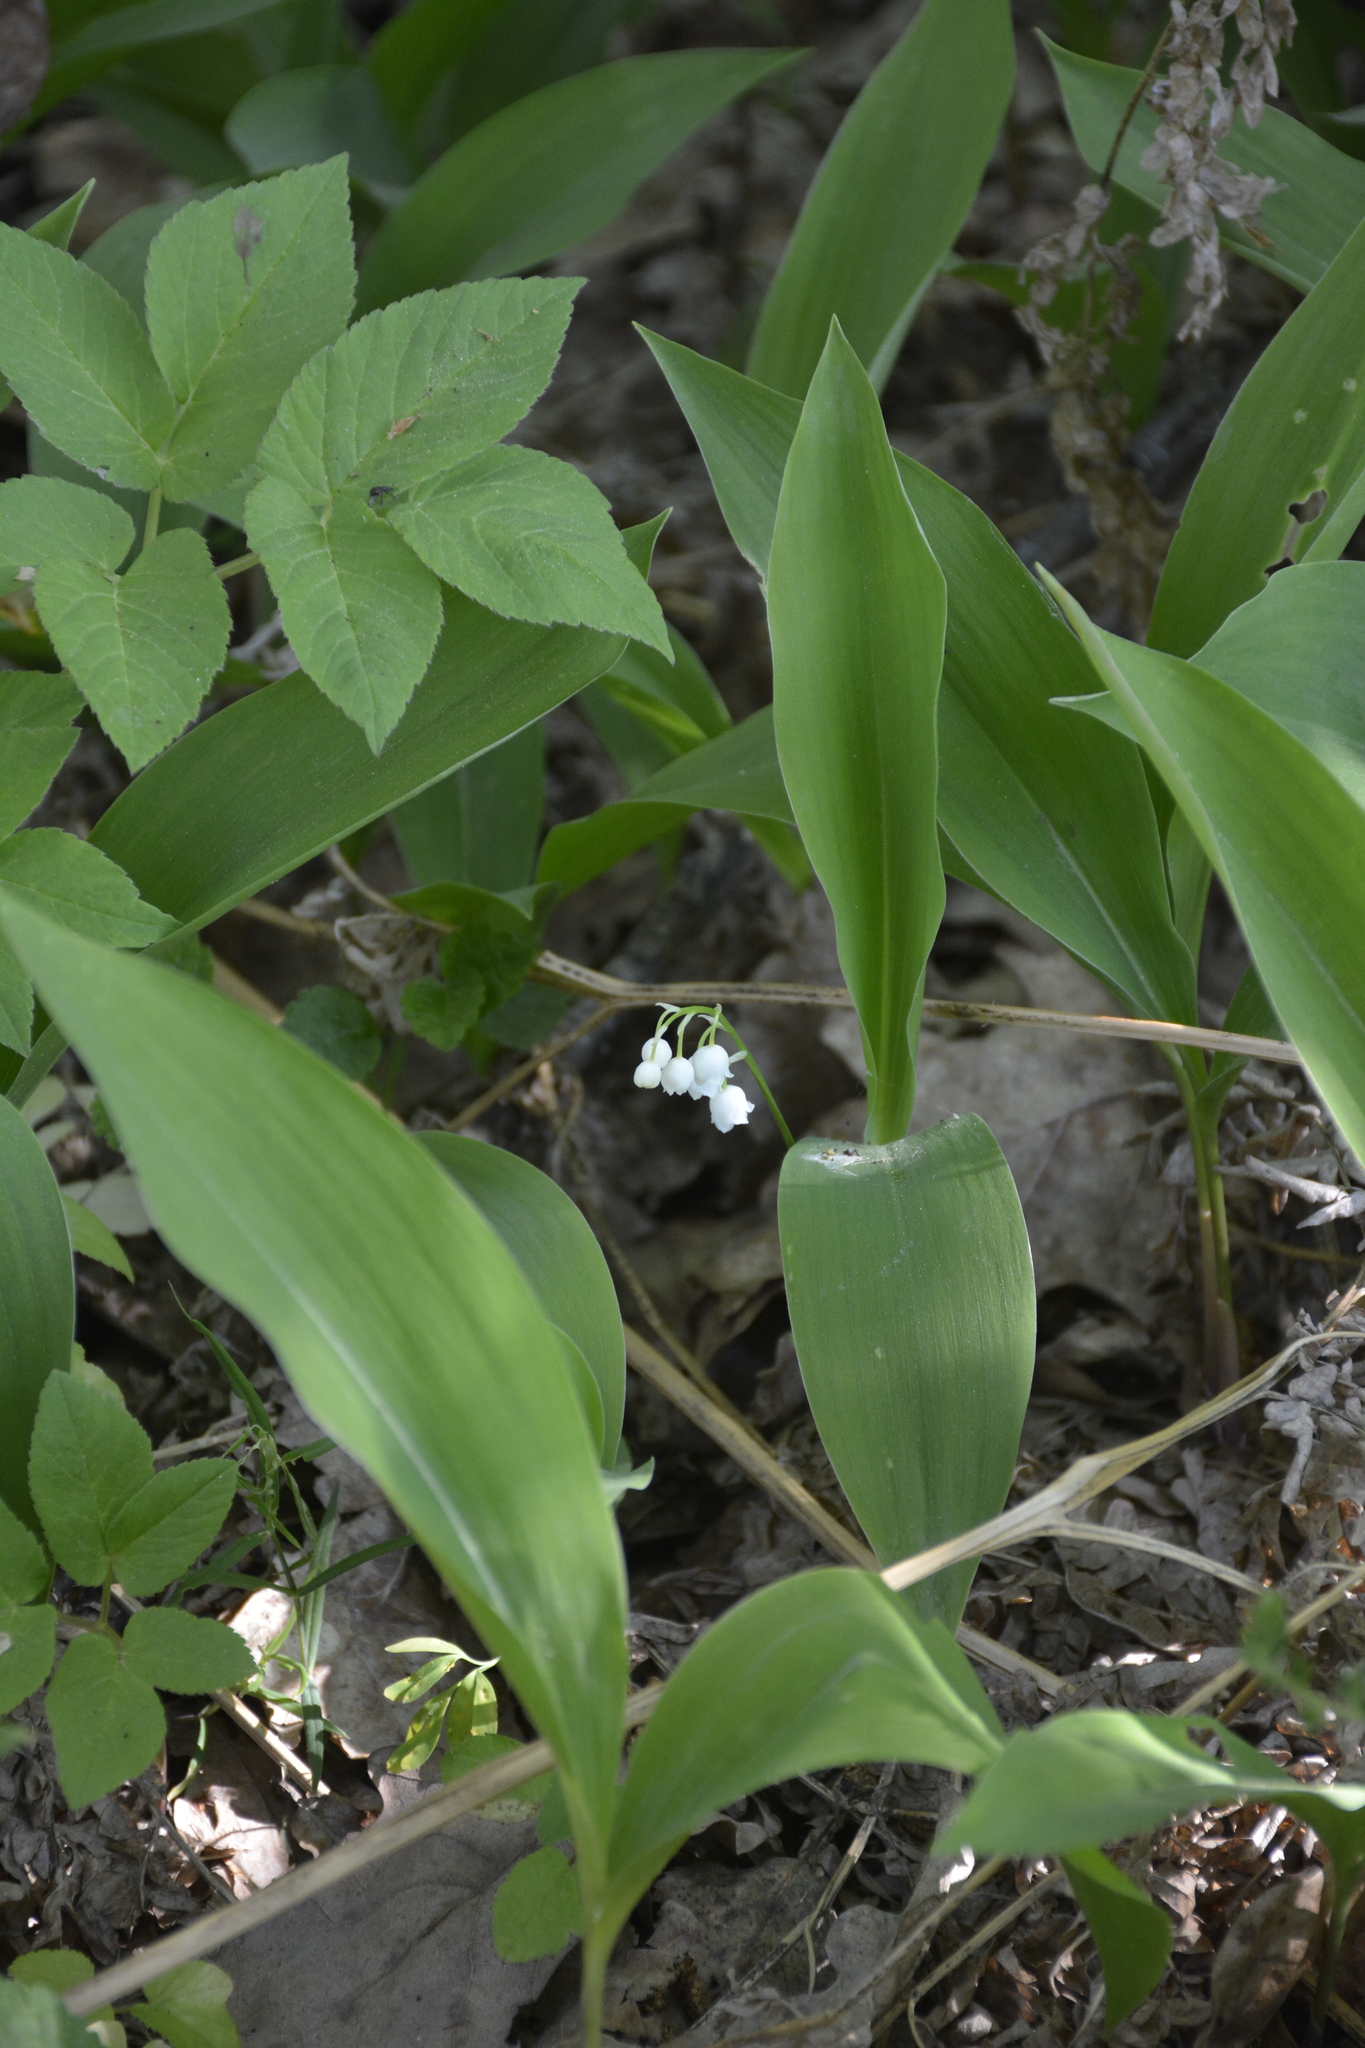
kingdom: Plantae
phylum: Tracheophyta
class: Liliopsida
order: Asparagales
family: Asparagaceae
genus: Convallaria
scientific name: Convallaria majalis
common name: Lily-of-the-valley
